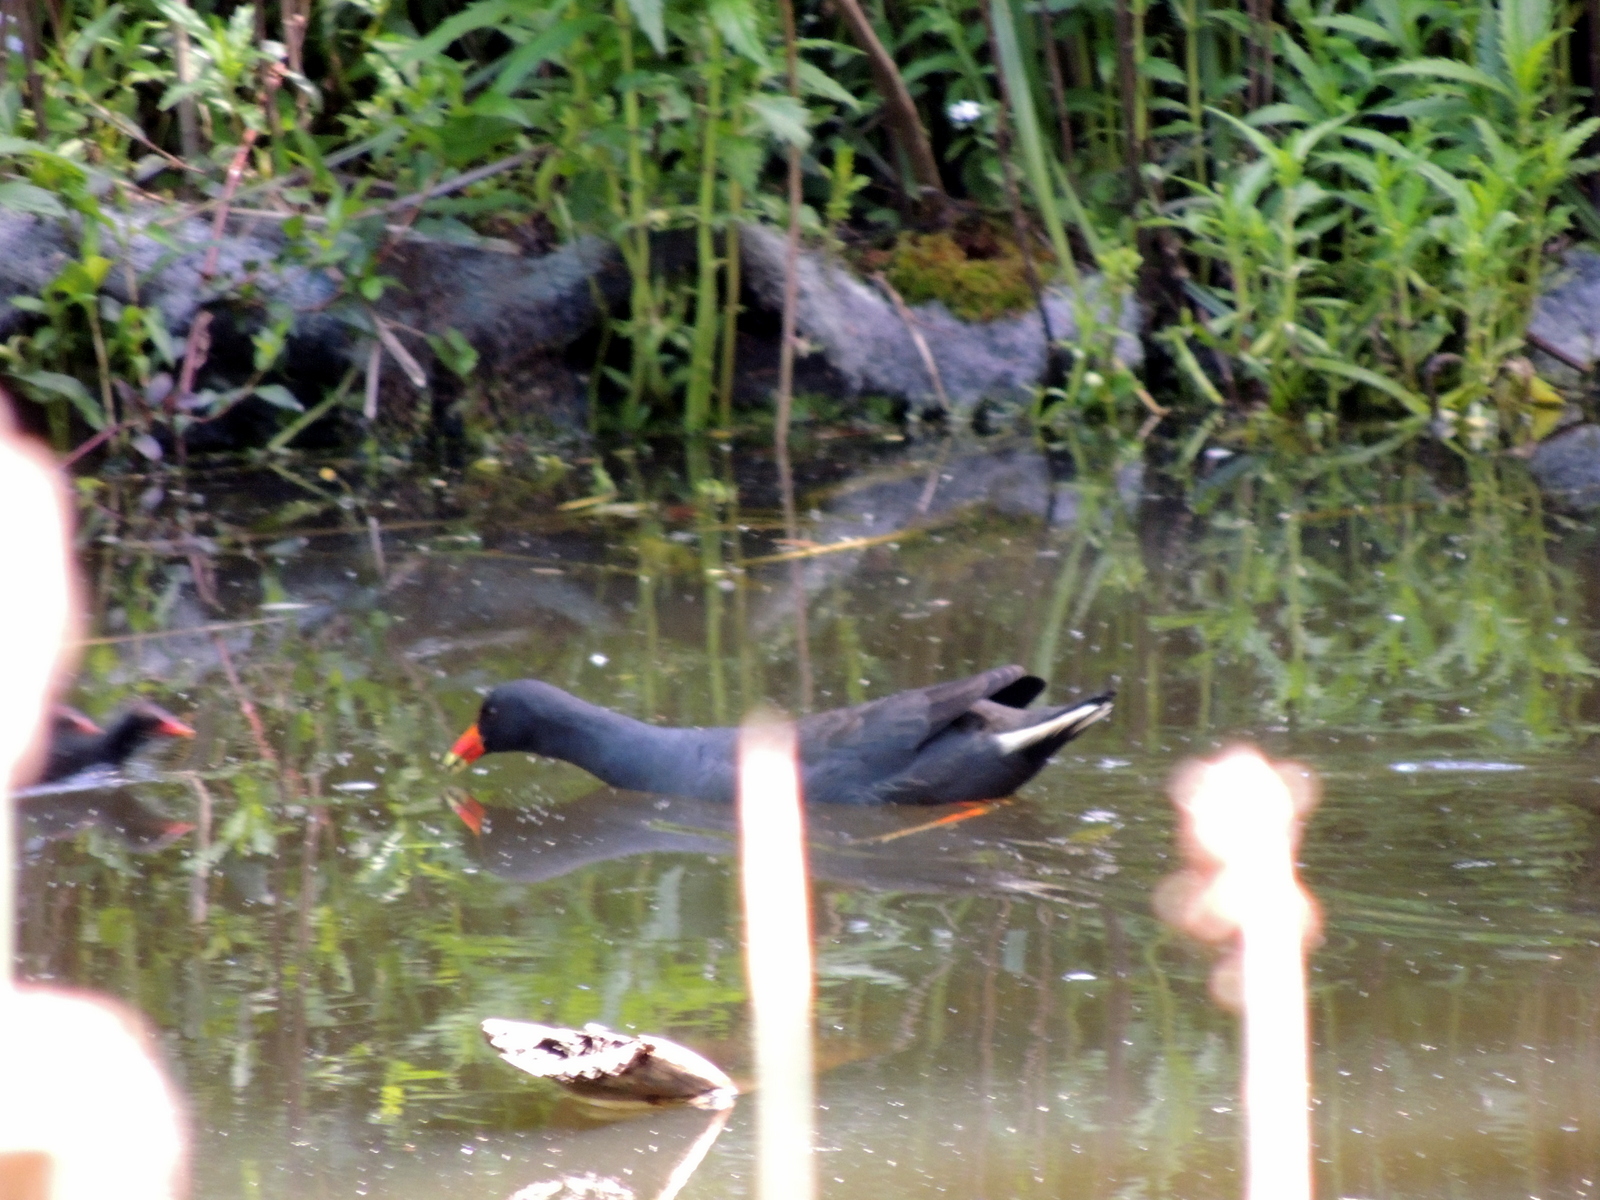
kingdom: Animalia
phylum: Chordata
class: Aves
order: Gruiformes
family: Rallidae
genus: Gallinula
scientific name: Gallinula tenebrosa
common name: Dusky moorhen
